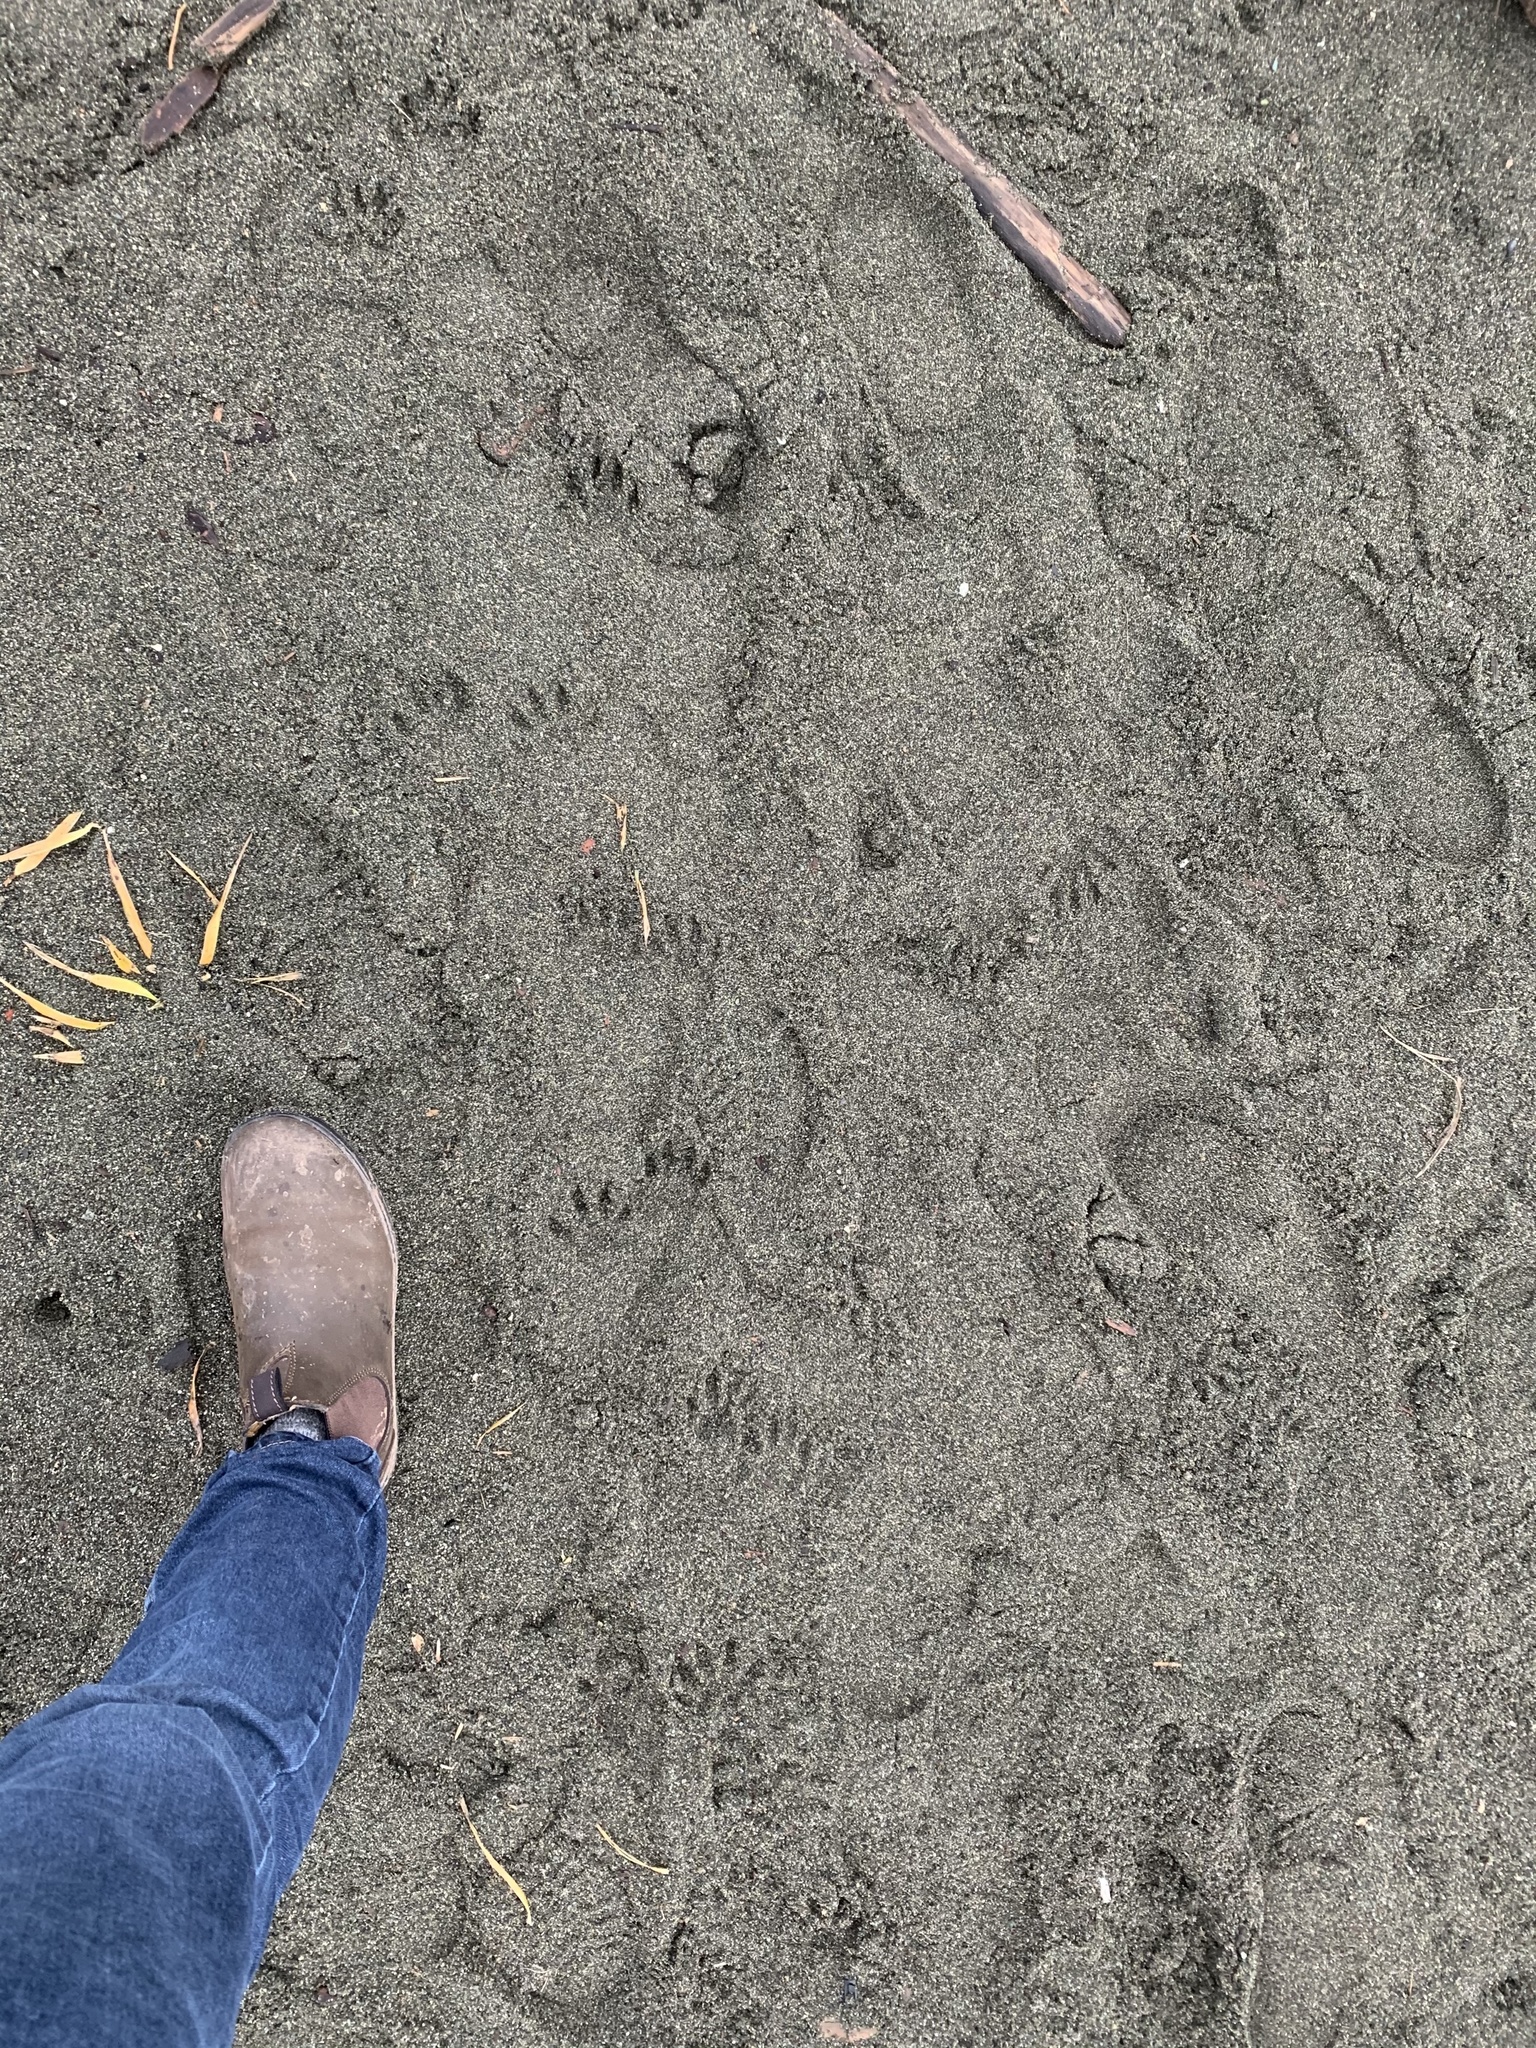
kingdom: Animalia
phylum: Chordata
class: Mammalia
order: Carnivora
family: Procyonidae
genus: Procyon
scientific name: Procyon lotor
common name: Raccoon
